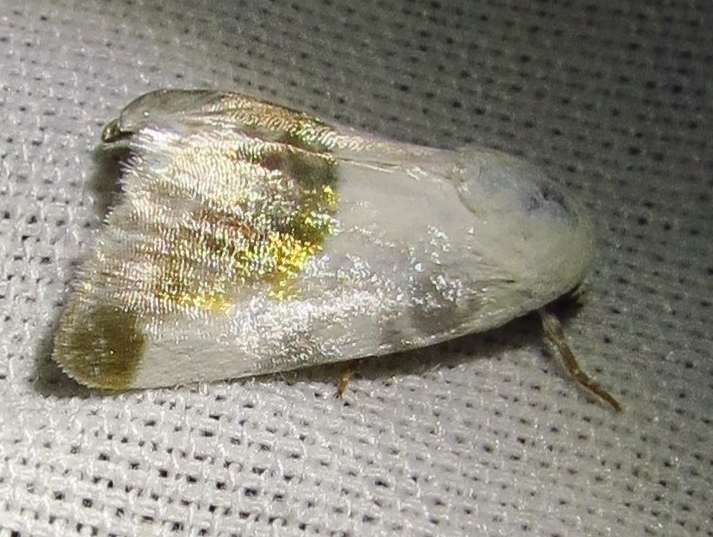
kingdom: Animalia
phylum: Arthropoda
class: Insecta
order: Lepidoptera
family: Noctuidae
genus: Acontia
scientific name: Acontia cretata
